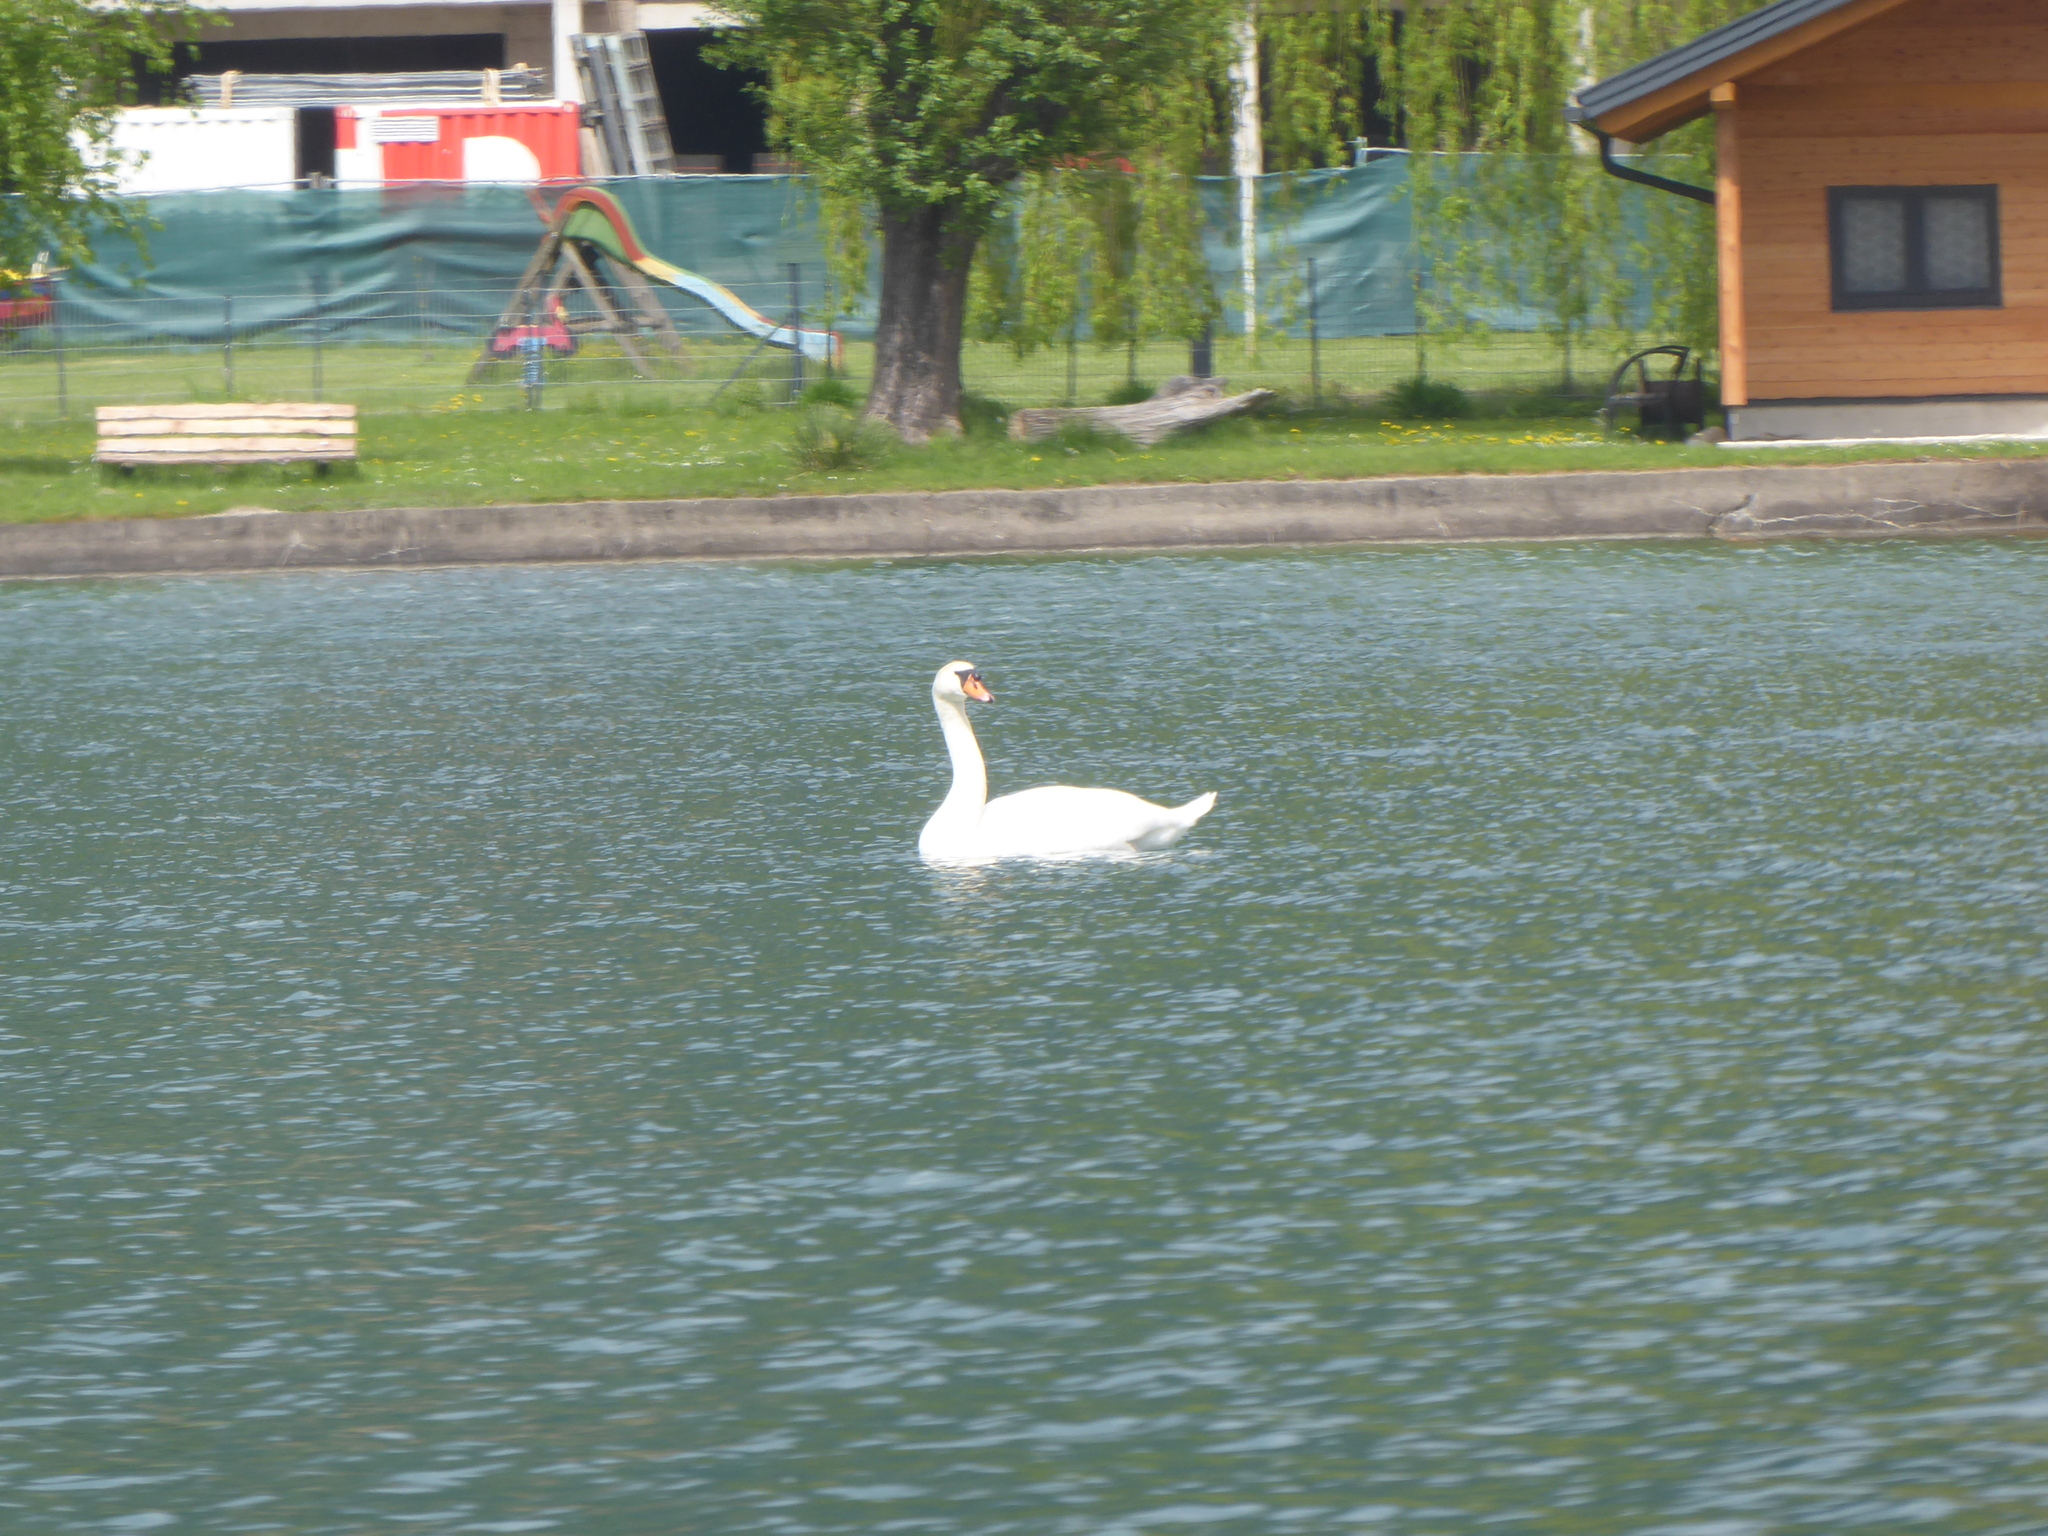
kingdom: Animalia
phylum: Chordata
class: Aves
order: Anseriformes
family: Anatidae
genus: Cygnus
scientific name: Cygnus olor
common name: Mute swan
